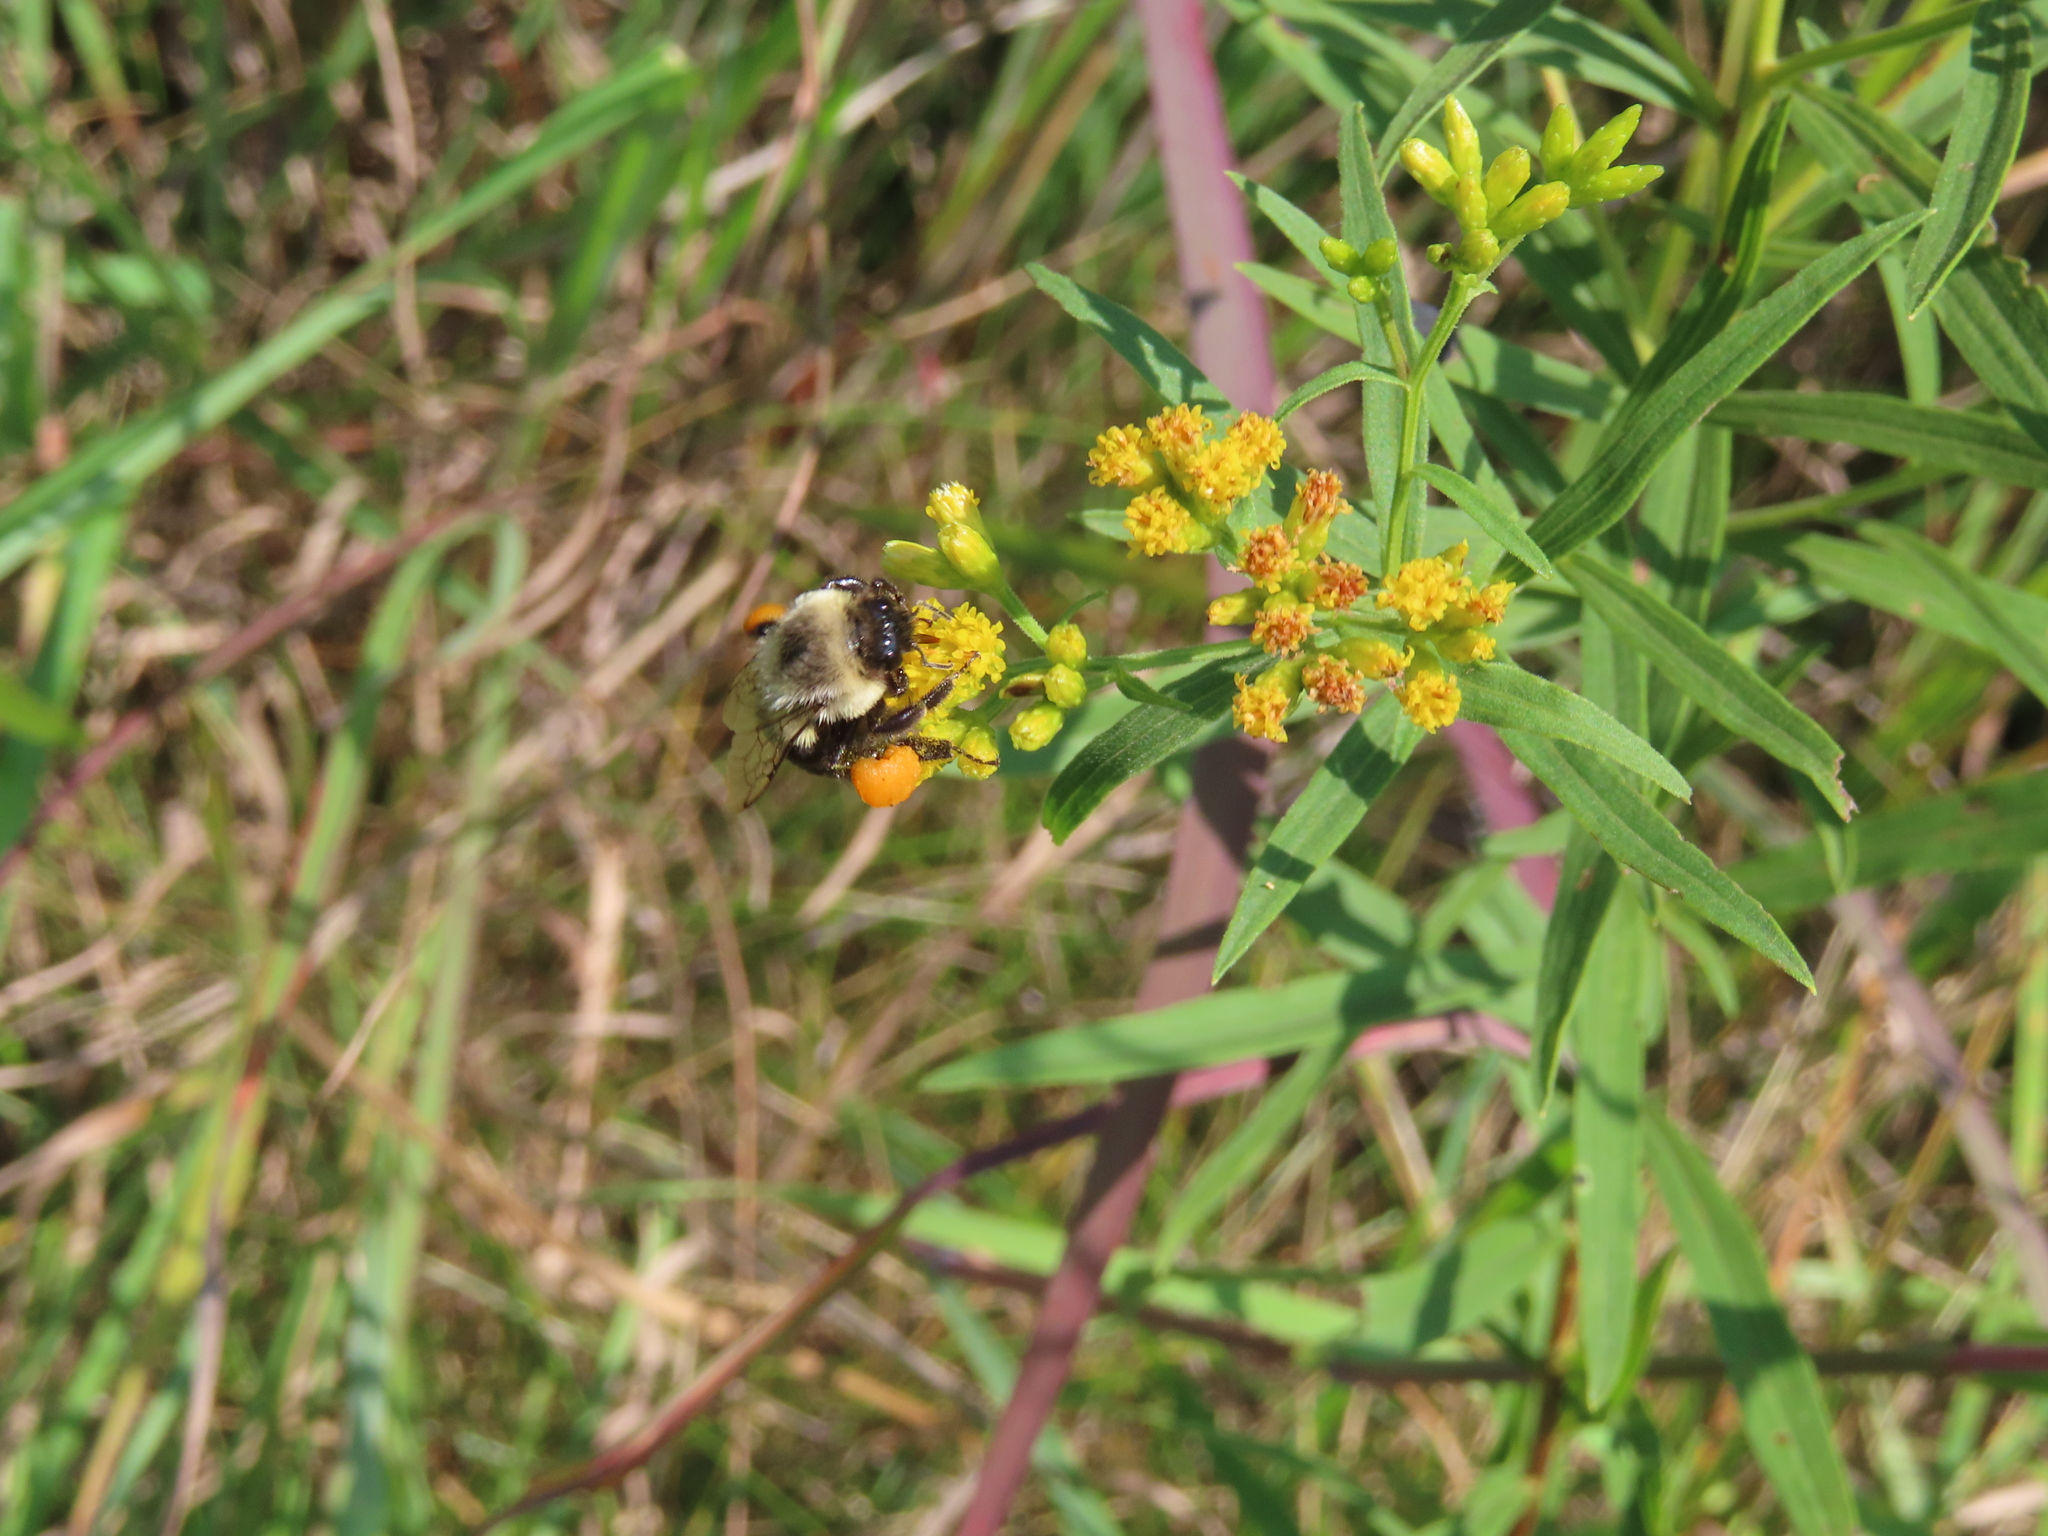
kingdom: Animalia
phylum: Arthropoda
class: Insecta
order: Hymenoptera
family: Apidae
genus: Bombus
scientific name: Bombus impatiens
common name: Common eastern bumble bee
